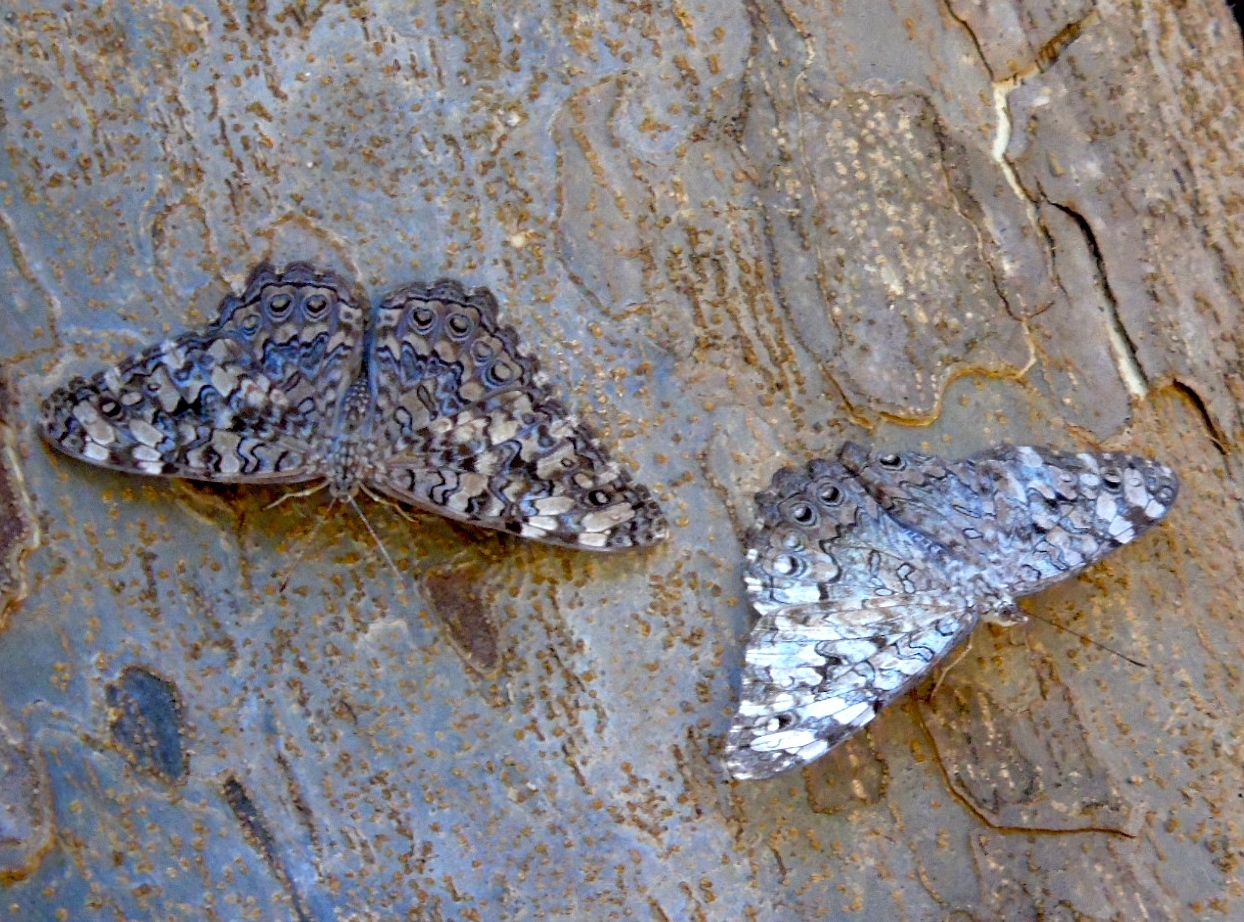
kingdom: Animalia
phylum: Arthropoda
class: Insecta
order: Lepidoptera
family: Nymphalidae
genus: Hamadryas
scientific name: Hamadryas februa
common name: Gray cracker
